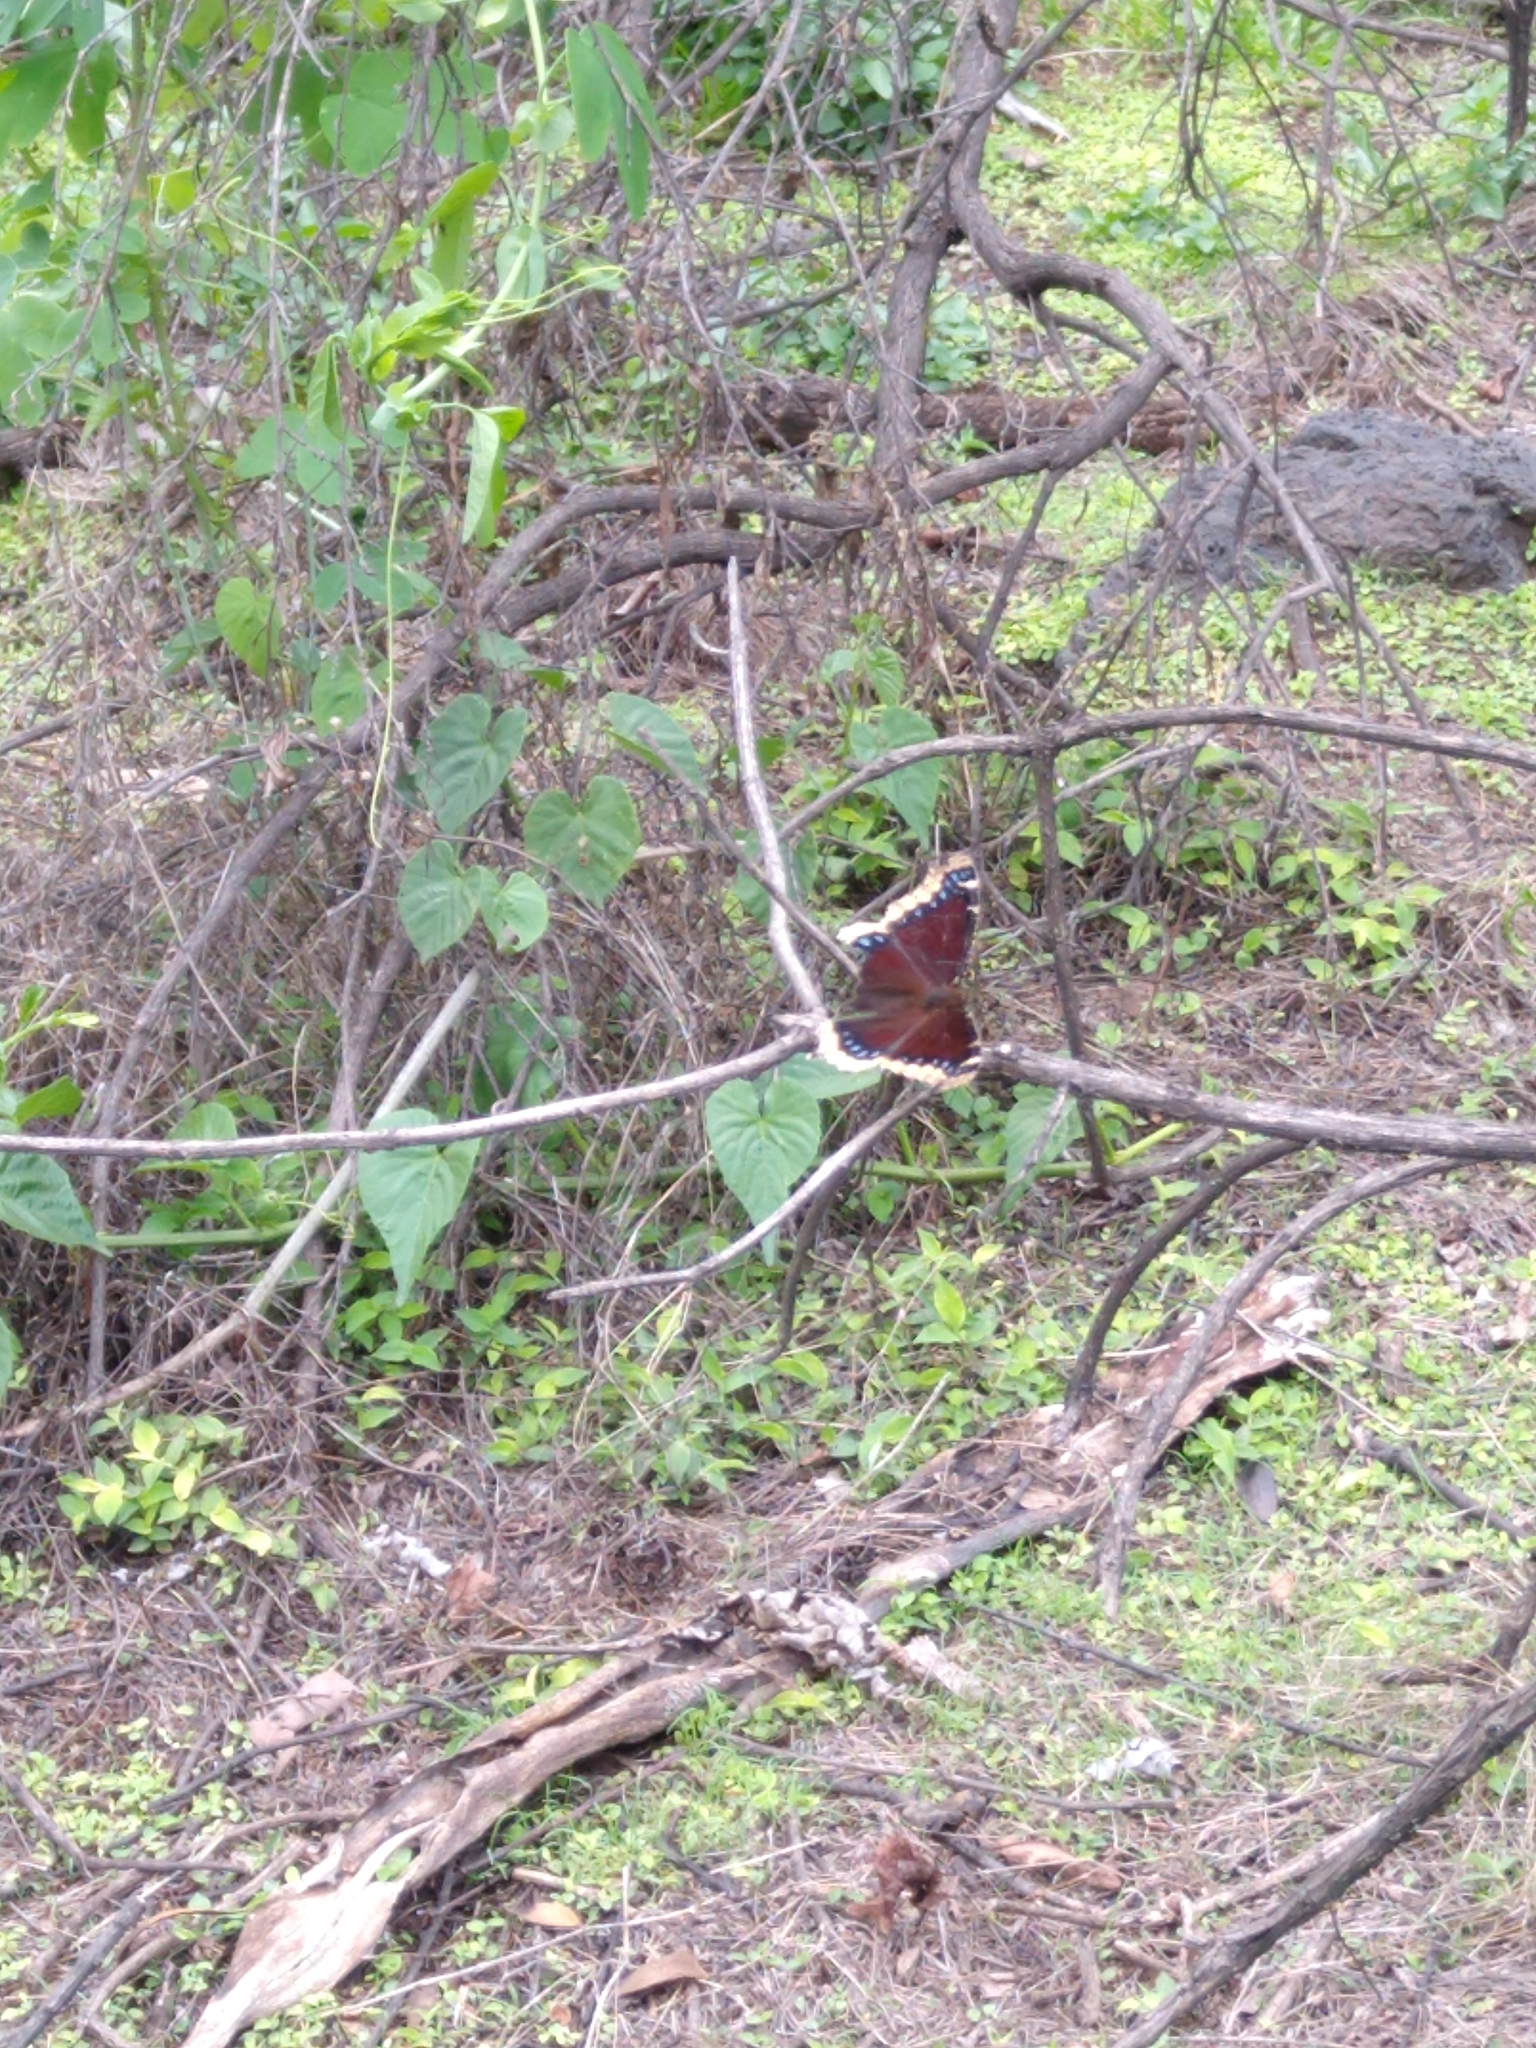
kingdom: Animalia
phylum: Arthropoda
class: Insecta
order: Lepidoptera
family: Nymphalidae
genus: Nymphalis
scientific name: Nymphalis antiopa
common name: Camberwell beauty
